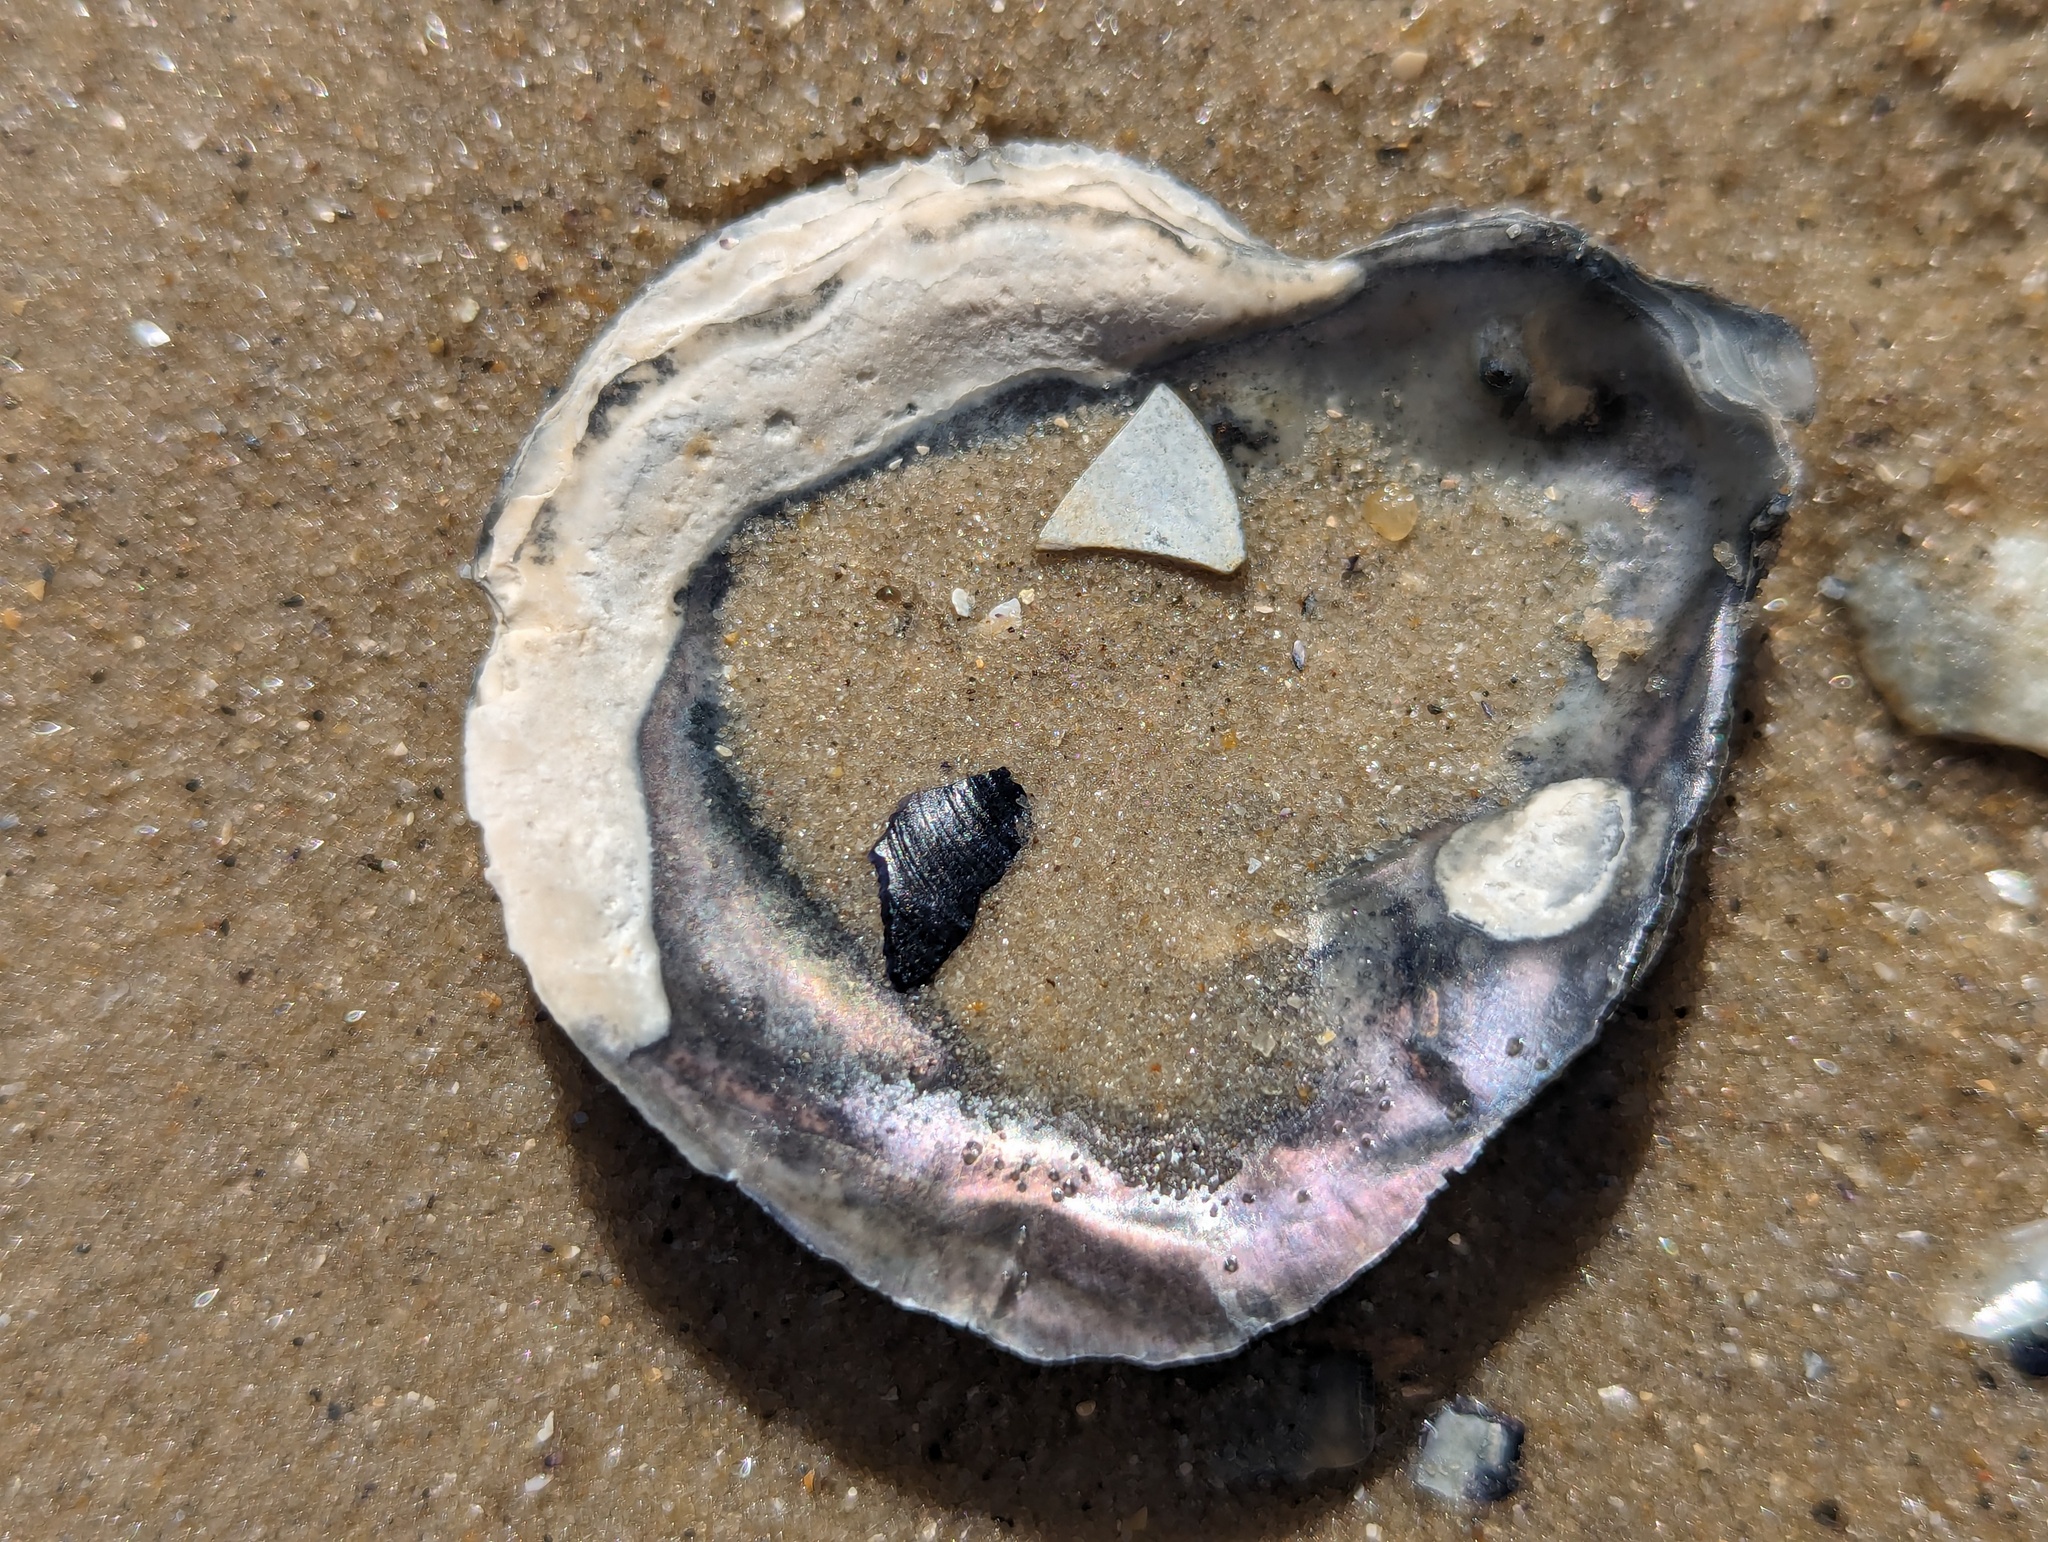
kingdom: Animalia
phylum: Mollusca
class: Bivalvia
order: Ostreida
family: Ostreidae
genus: Ostrea
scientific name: Ostrea angasi
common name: Angasi oyster
